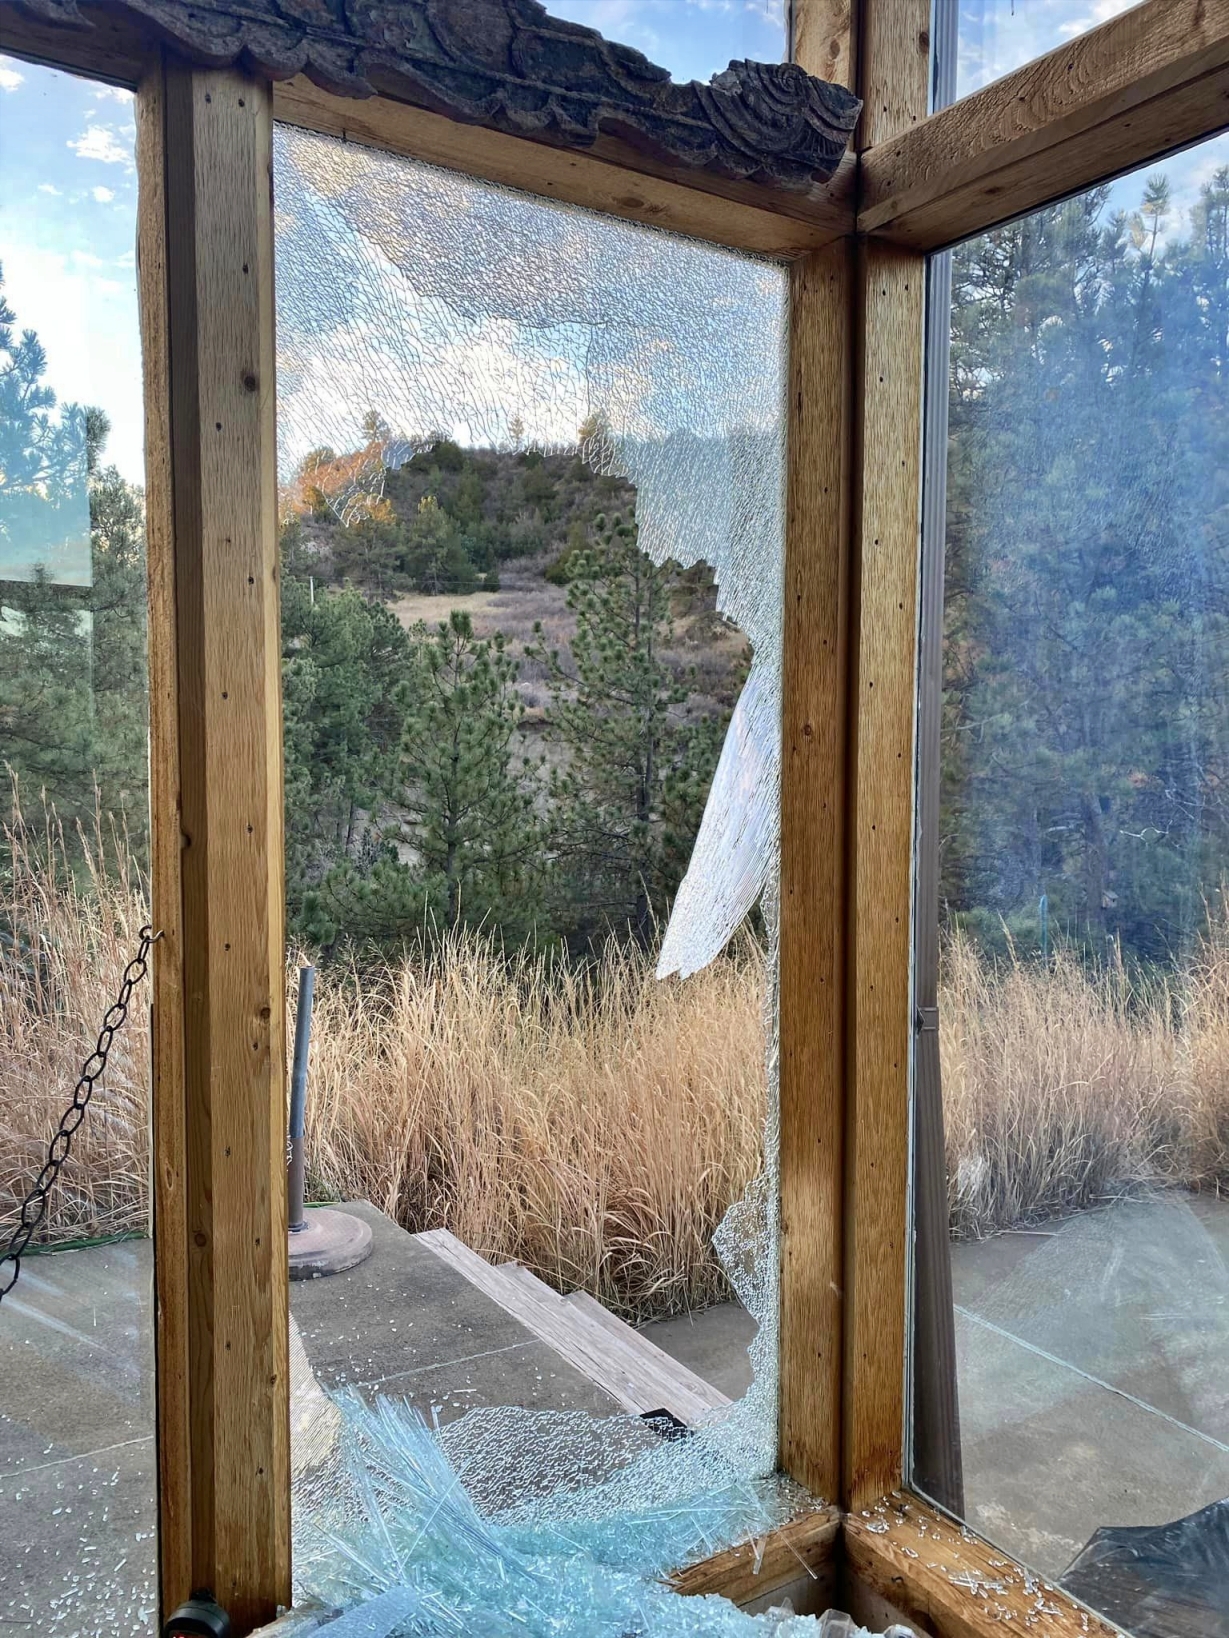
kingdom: Animalia
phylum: Chordata
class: Mammalia
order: Artiodactyla
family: Bovidae
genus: Ovis
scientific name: Ovis canadensis
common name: Bighorn sheep
